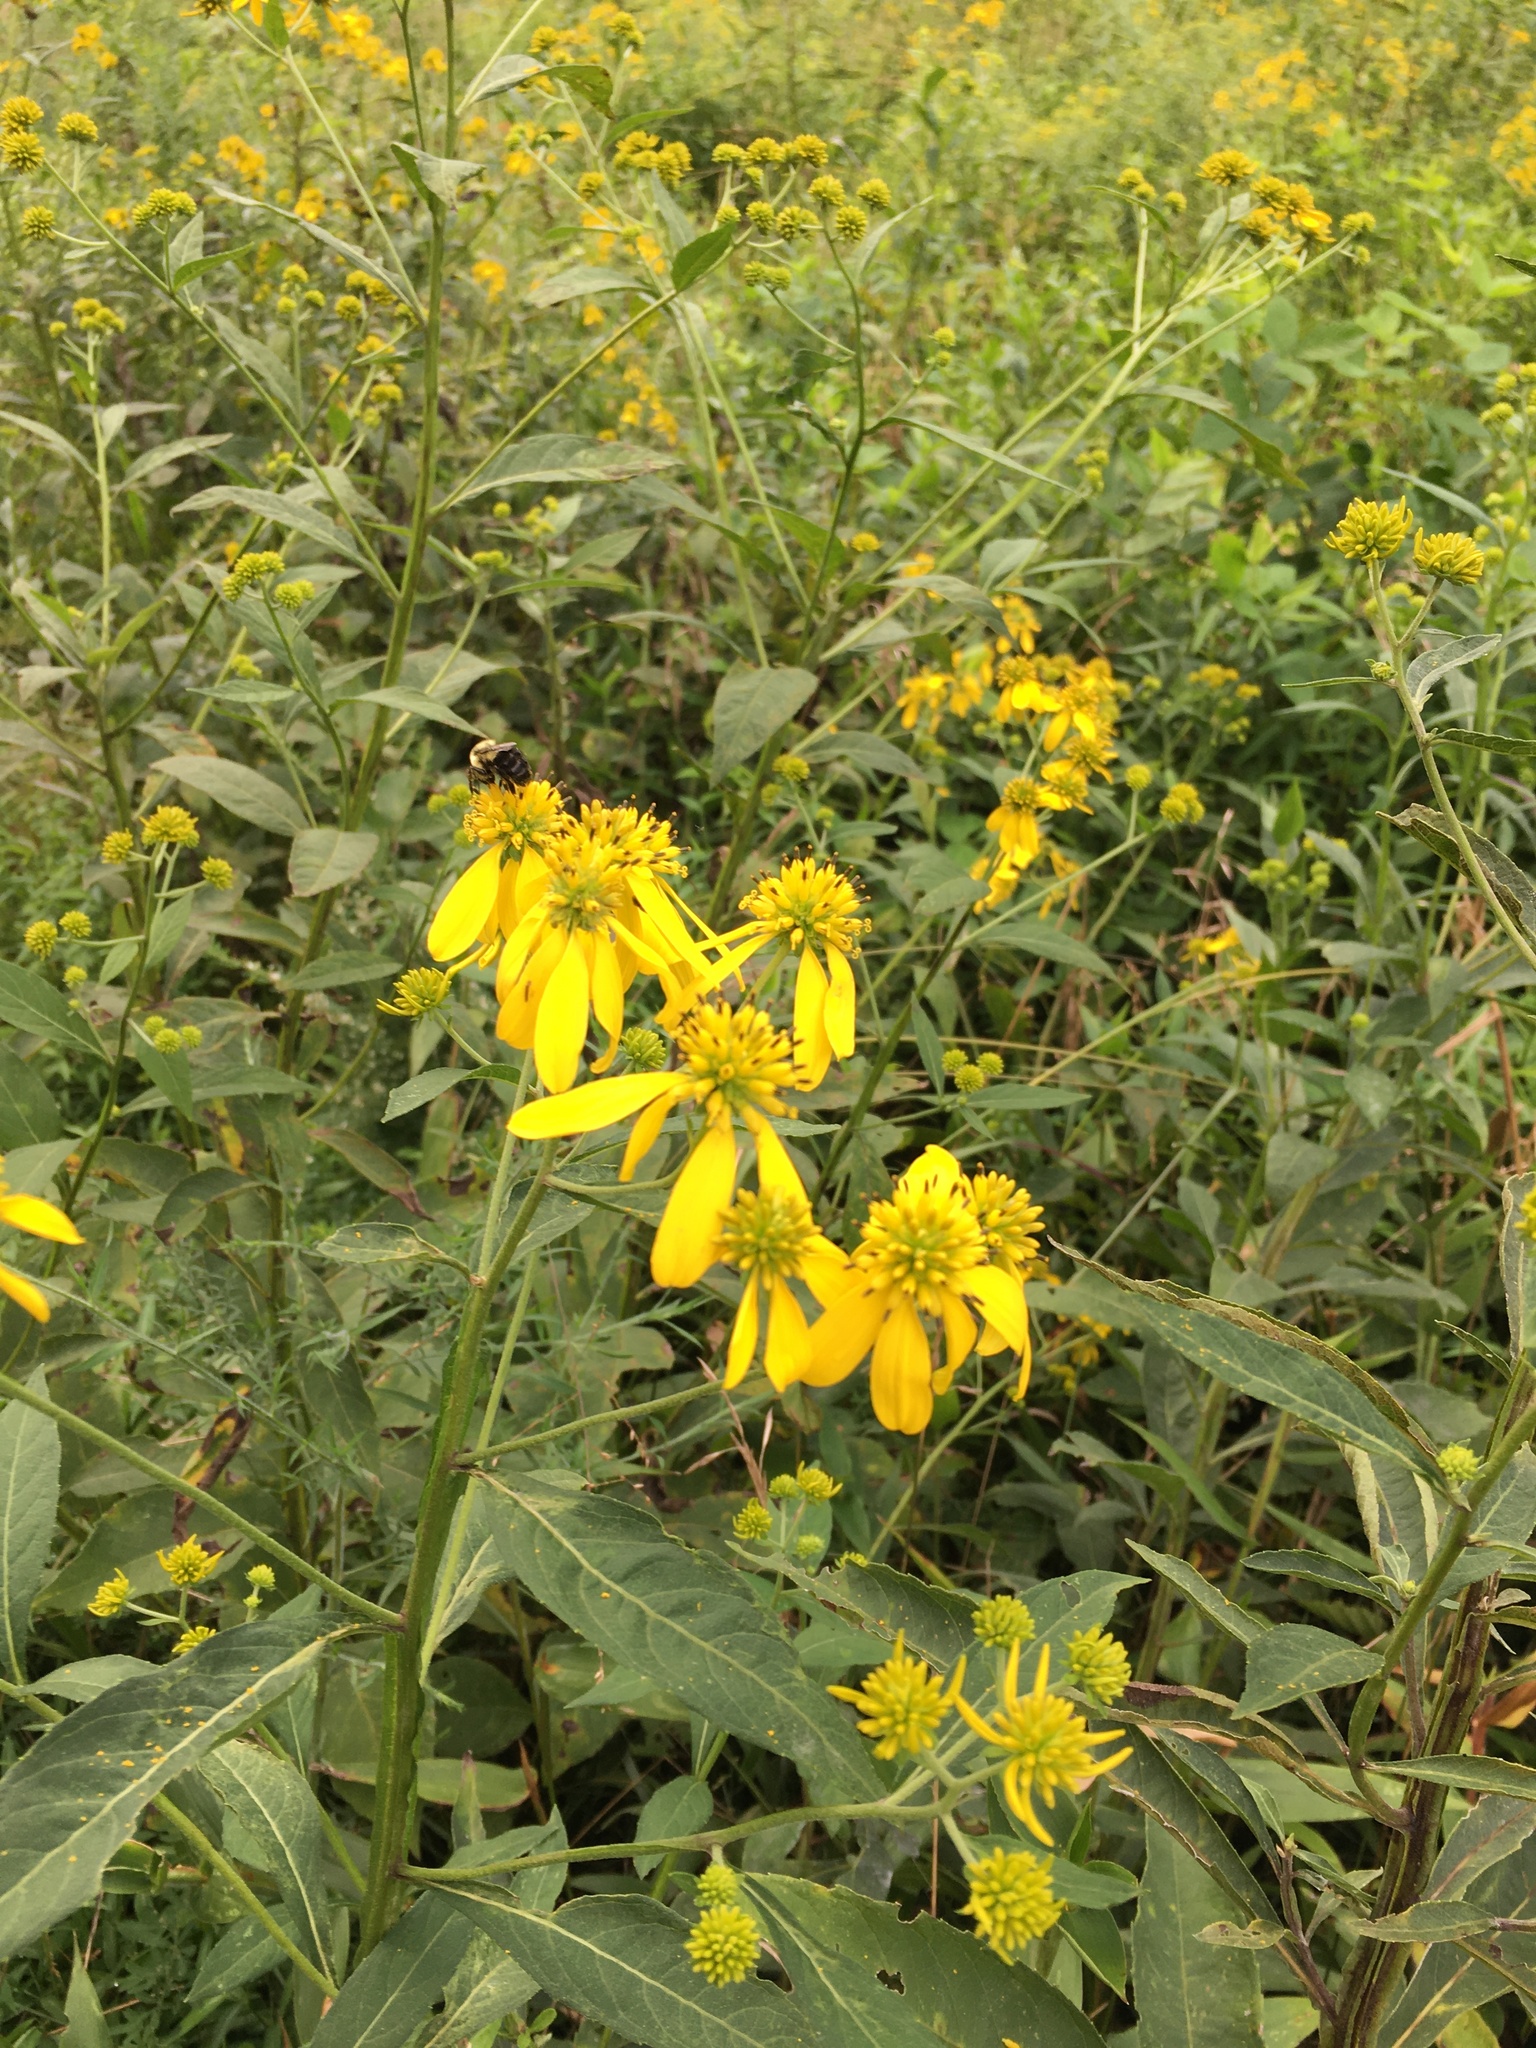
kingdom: Plantae
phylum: Tracheophyta
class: Magnoliopsida
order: Asterales
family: Asteraceae
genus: Verbesina
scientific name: Verbesina alternifolia
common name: Wingstem
